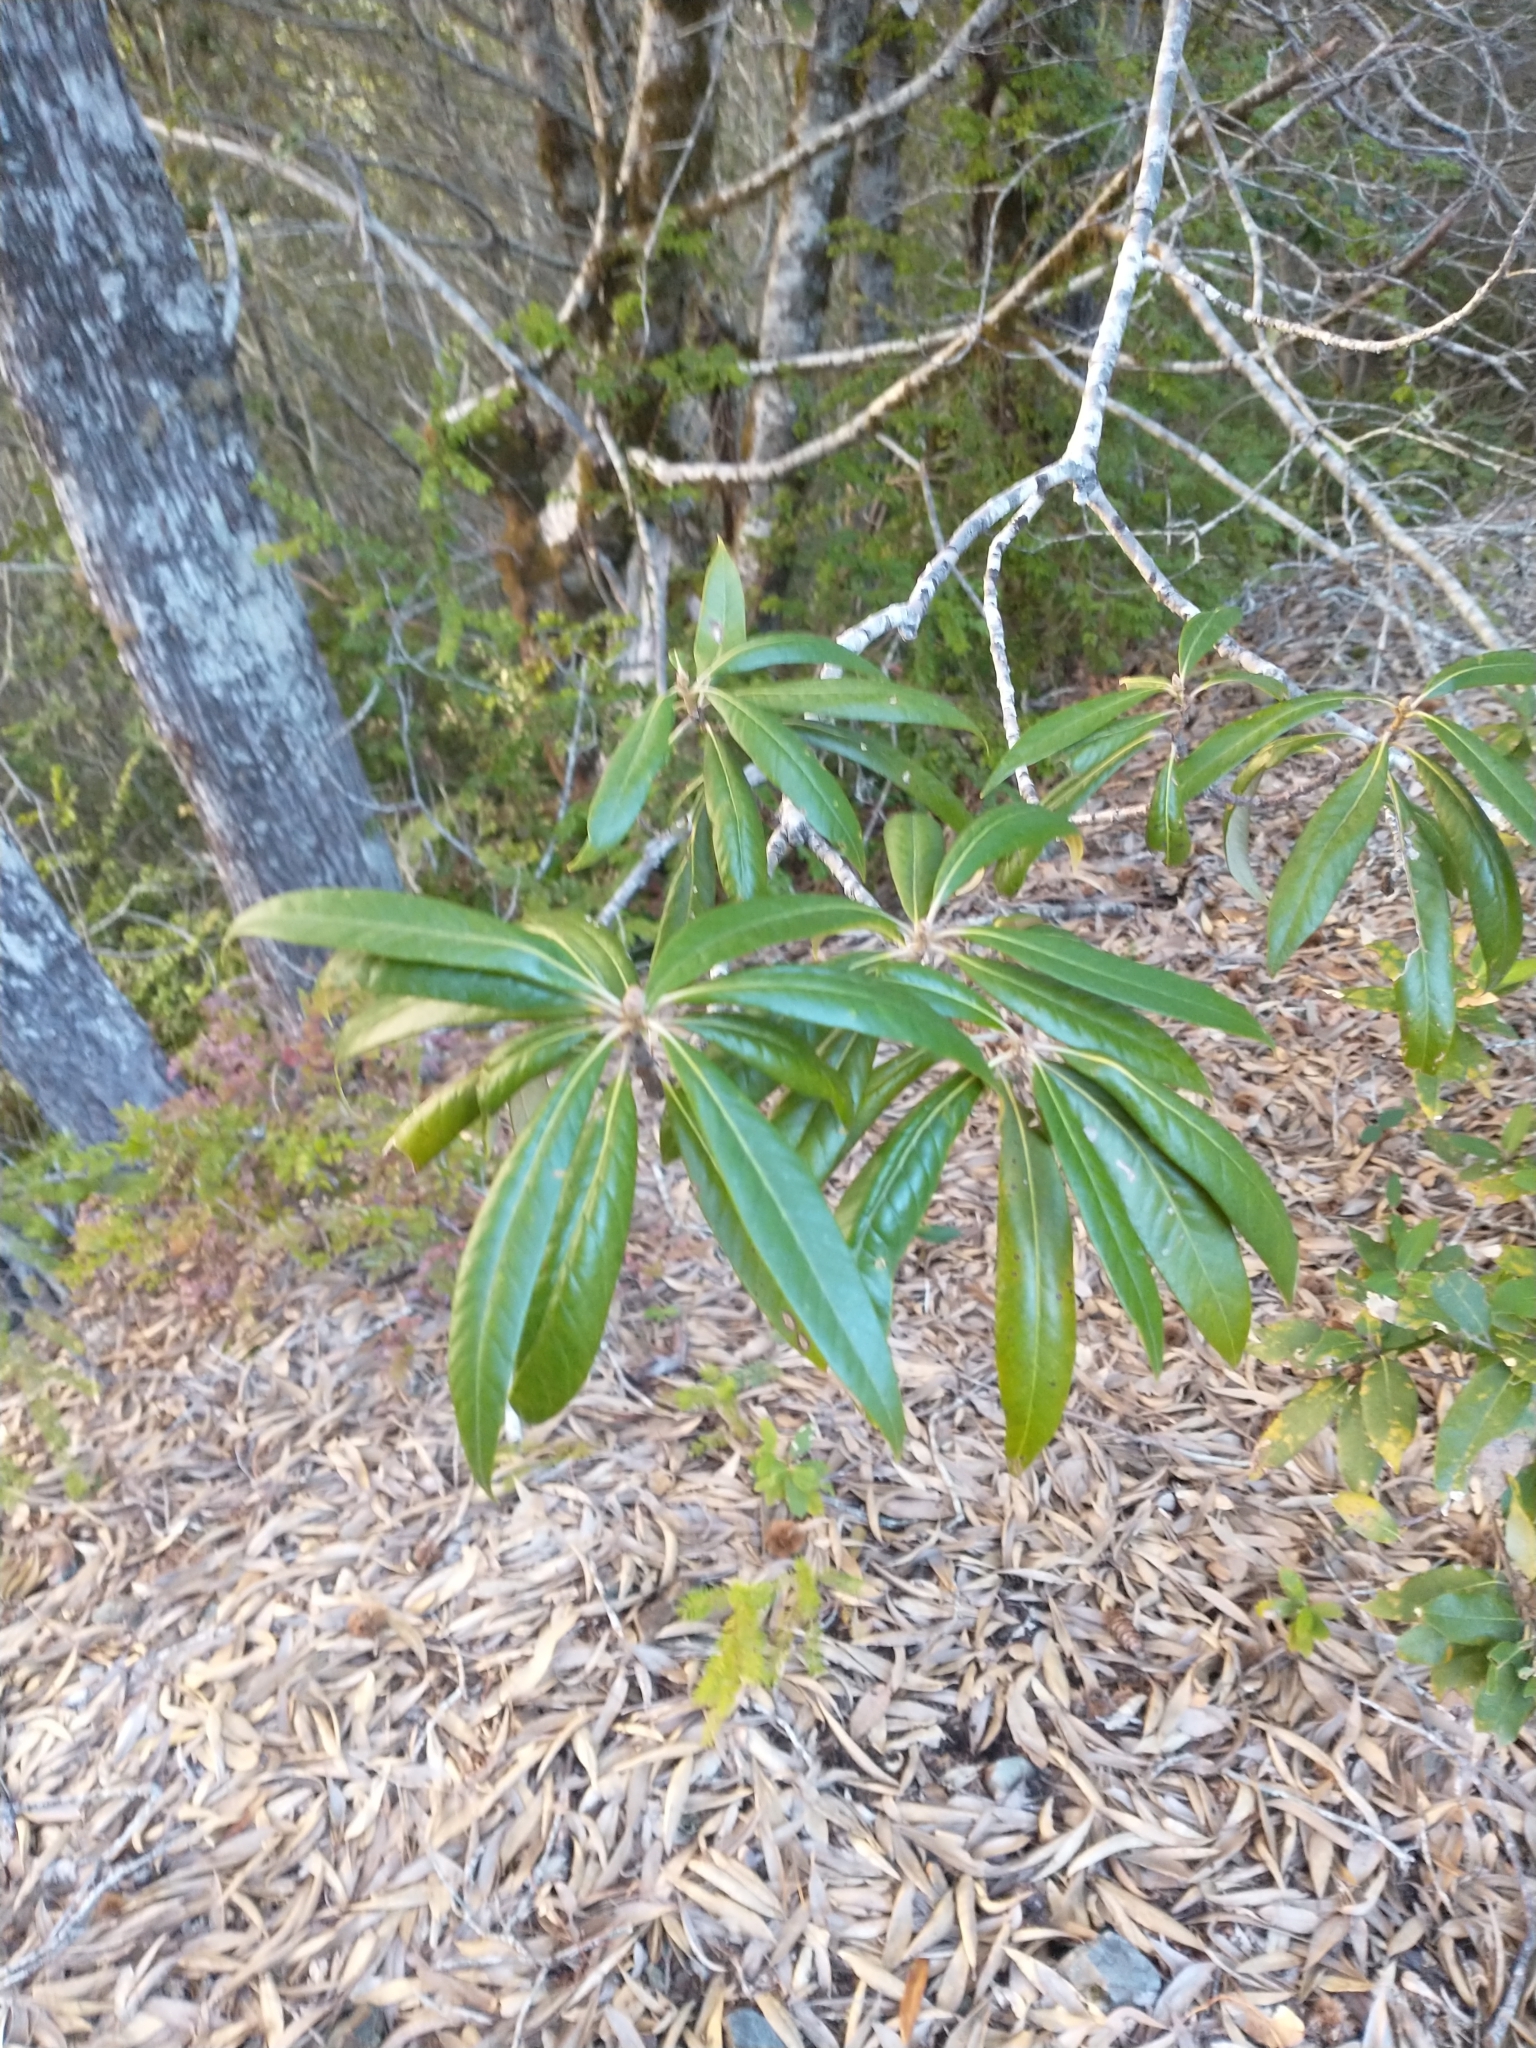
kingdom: Plantae
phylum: Tracheophyta
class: Magnoliopsida
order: Fagales
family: Fagaceae
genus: Chrysolepis
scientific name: Chrysolepis chrysophylla
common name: Giant chinquapin
